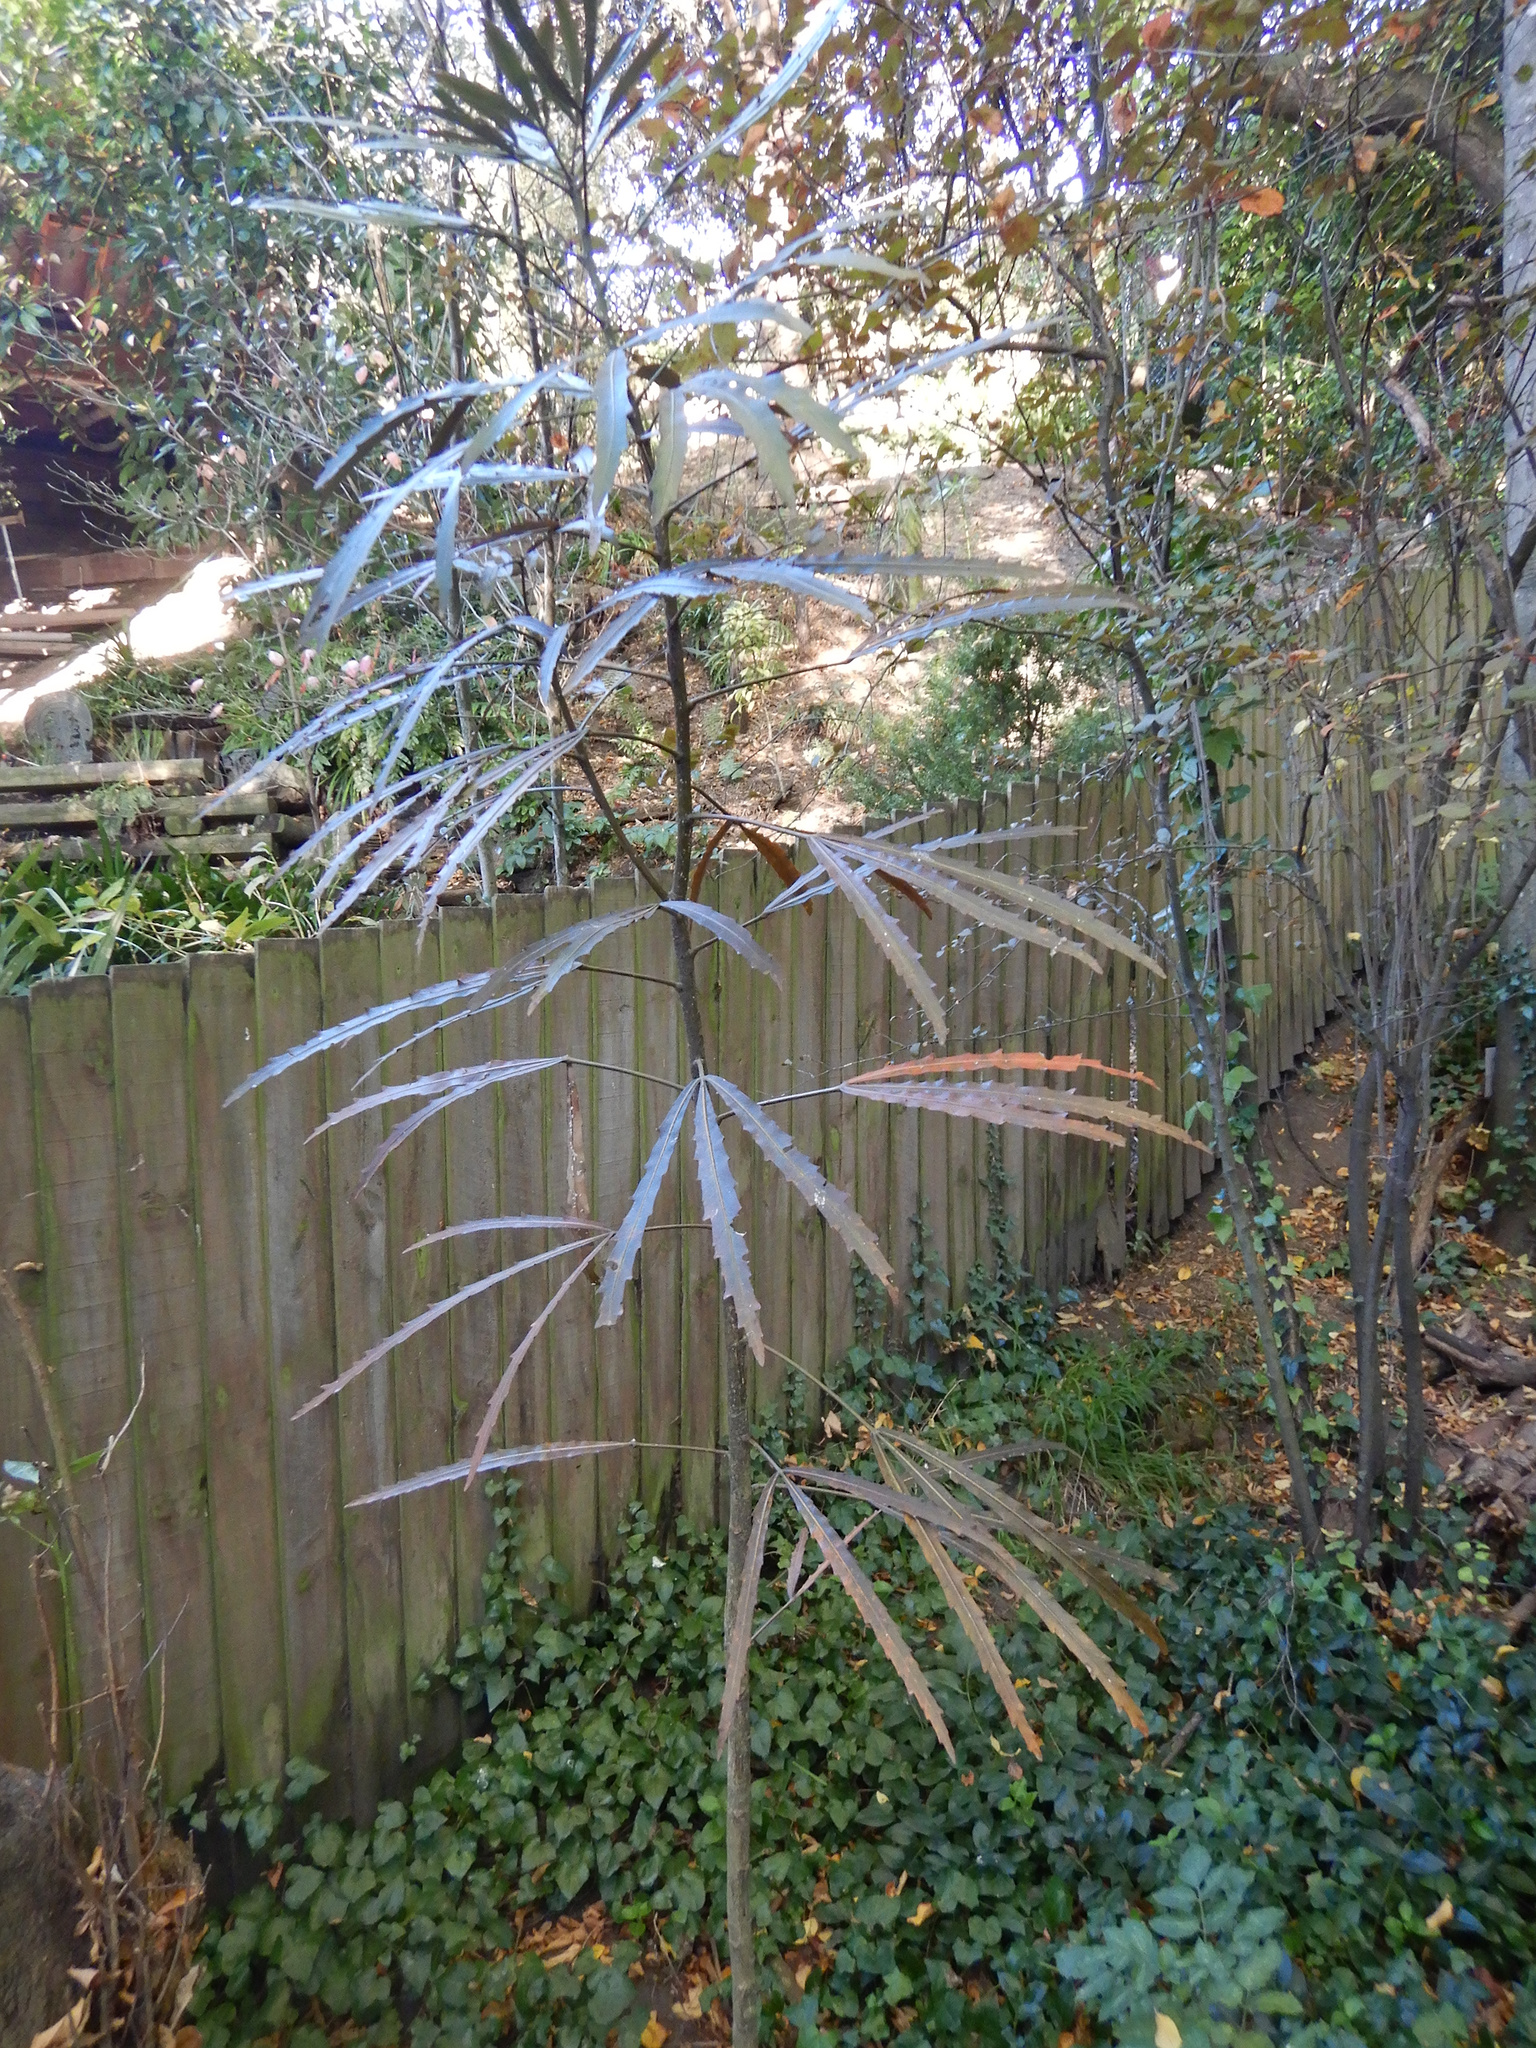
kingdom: Plantae
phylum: Tracheophyta
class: Magnoliopsida
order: Apiales
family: Araliaceae
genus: Pseudopanax
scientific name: Pseudopanax
